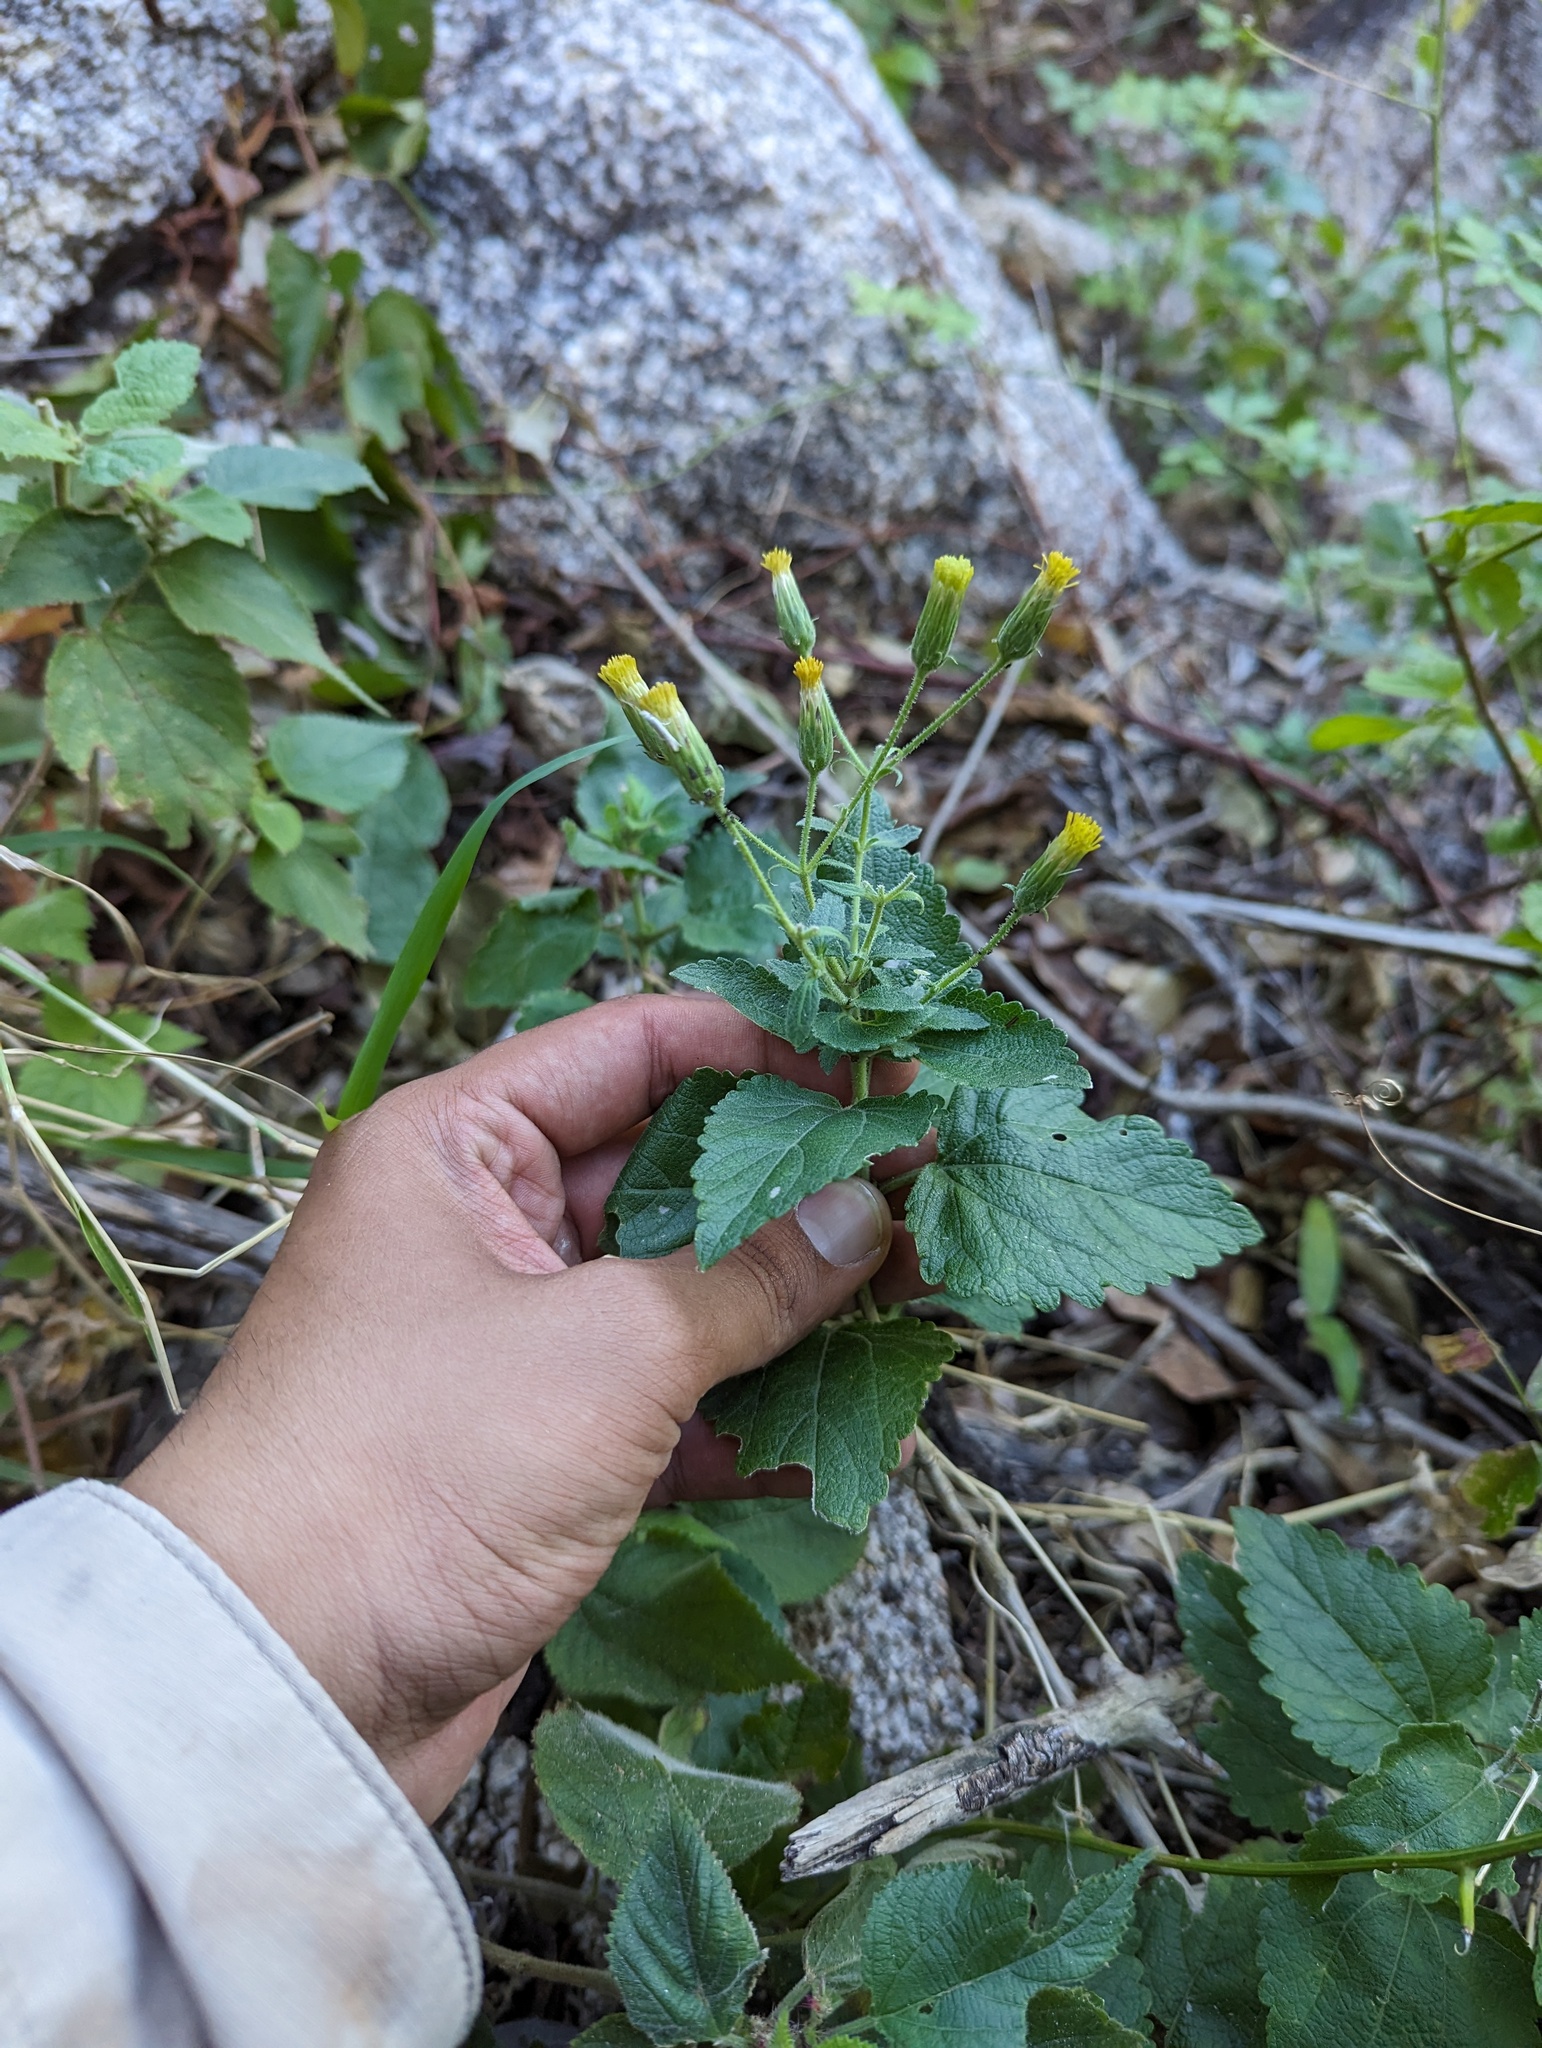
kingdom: Plantae
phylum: Tracheophyta
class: Magnoliopsida
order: Asterales
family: Asteraceae
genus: Brickellia
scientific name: Brickellia peninsularis
